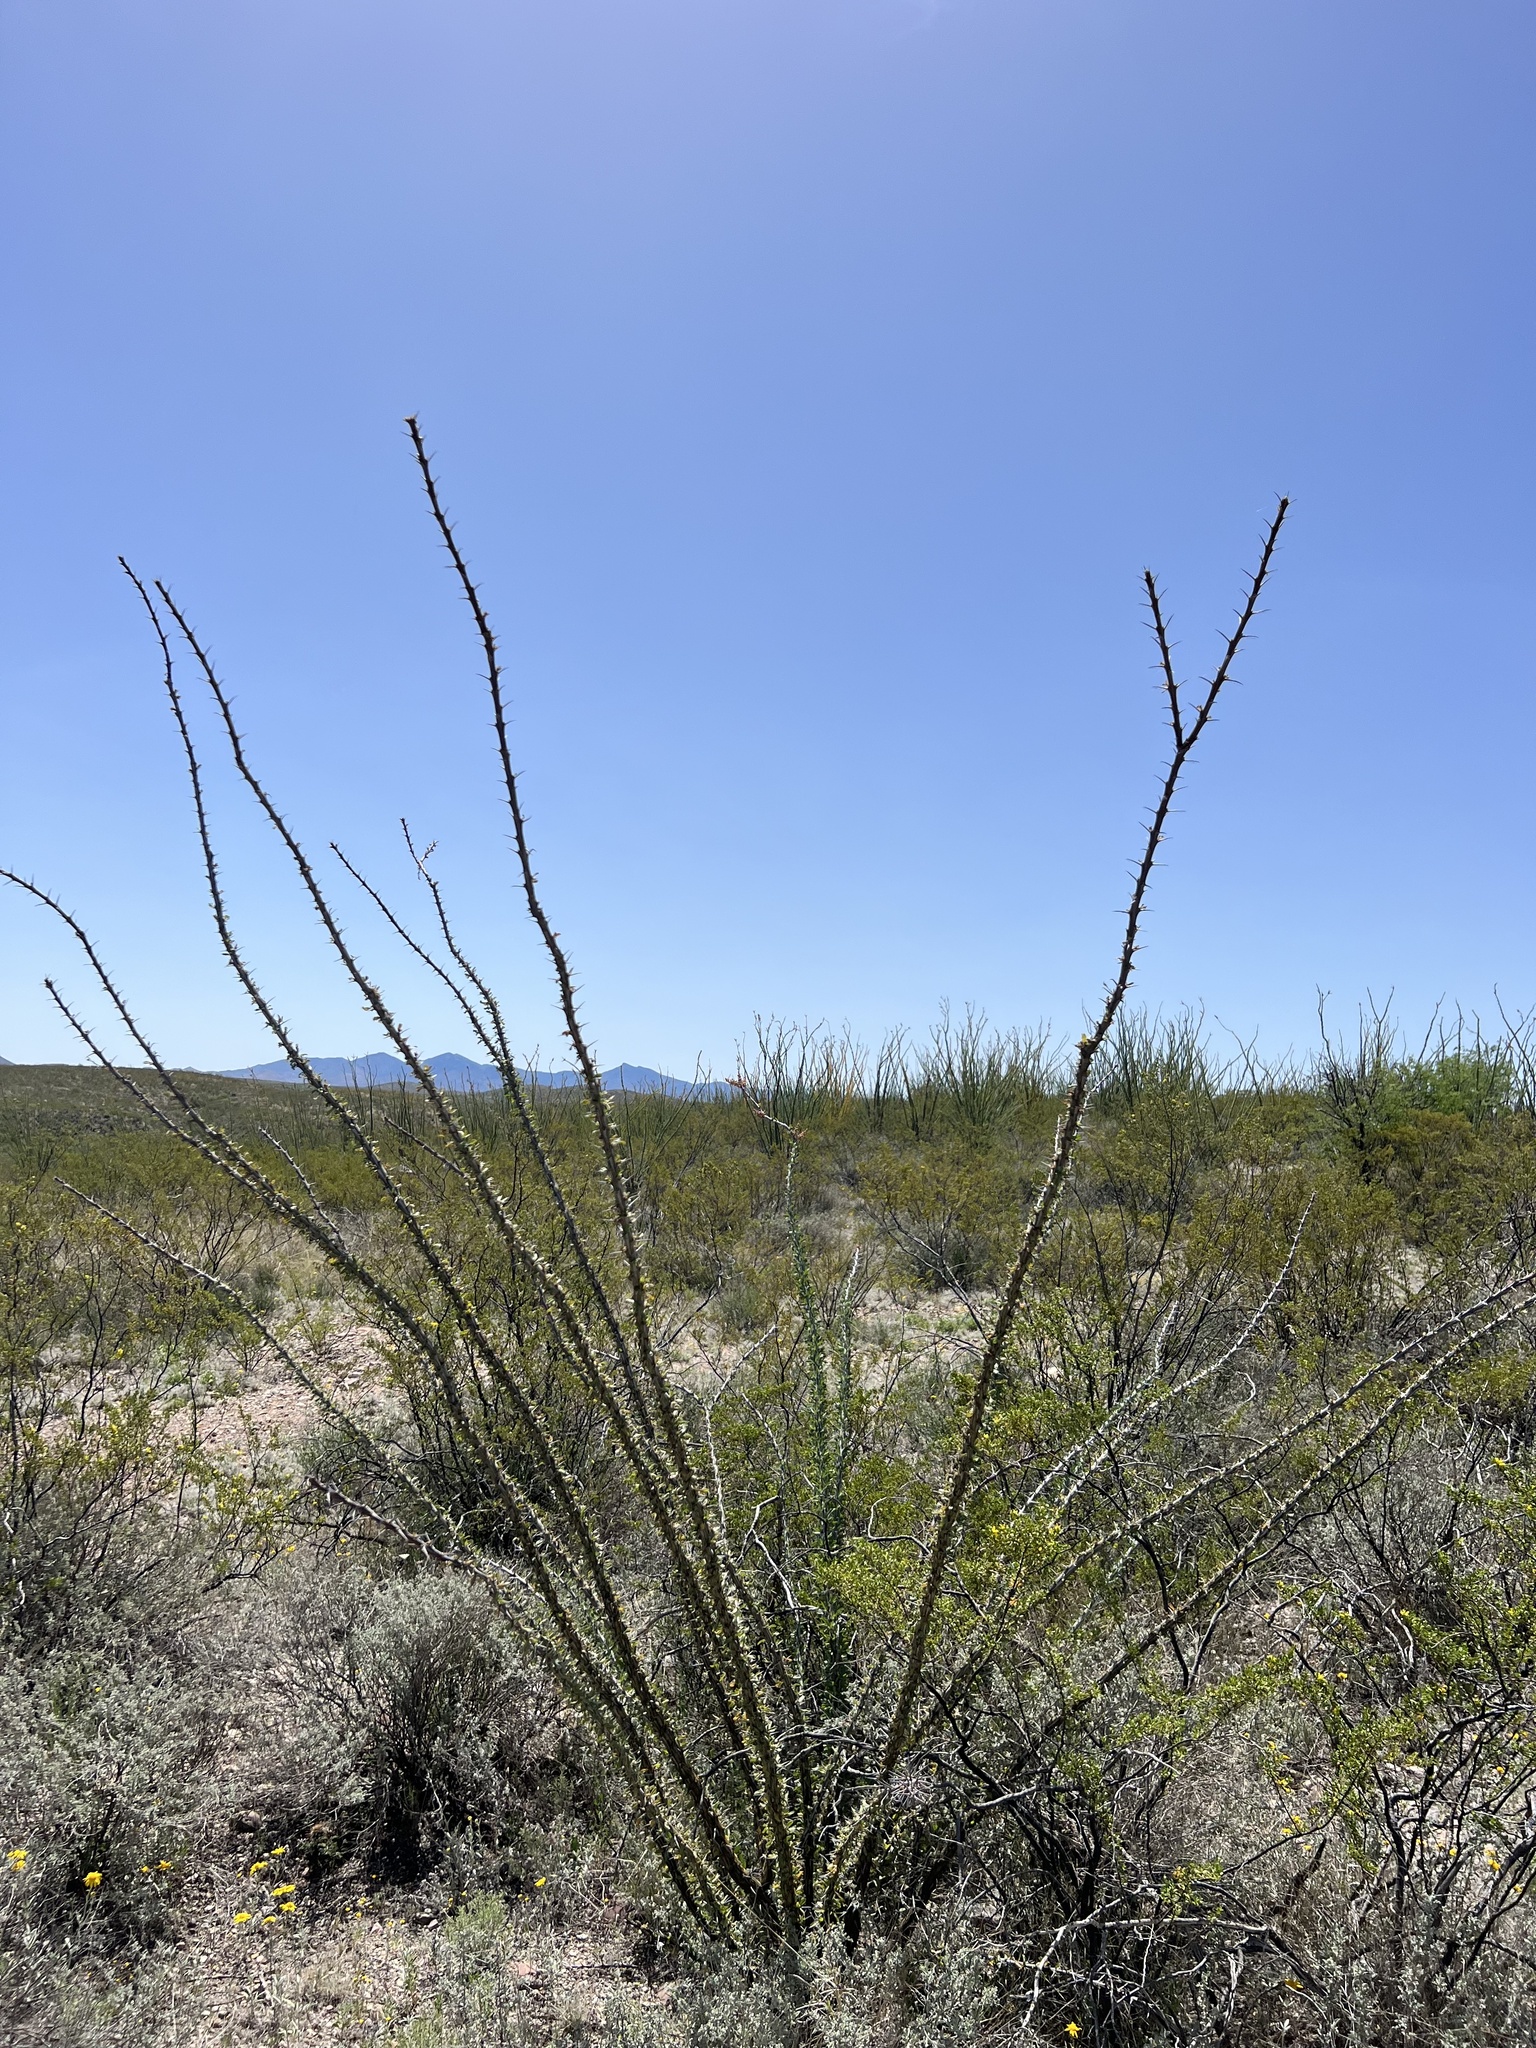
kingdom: Plantae
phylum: Tracheophyta
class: Magnoliopsida
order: Ericales
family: Fouquieriaceae
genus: Fouquieria
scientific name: Fouquieria splendens
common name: Vine-cactus
